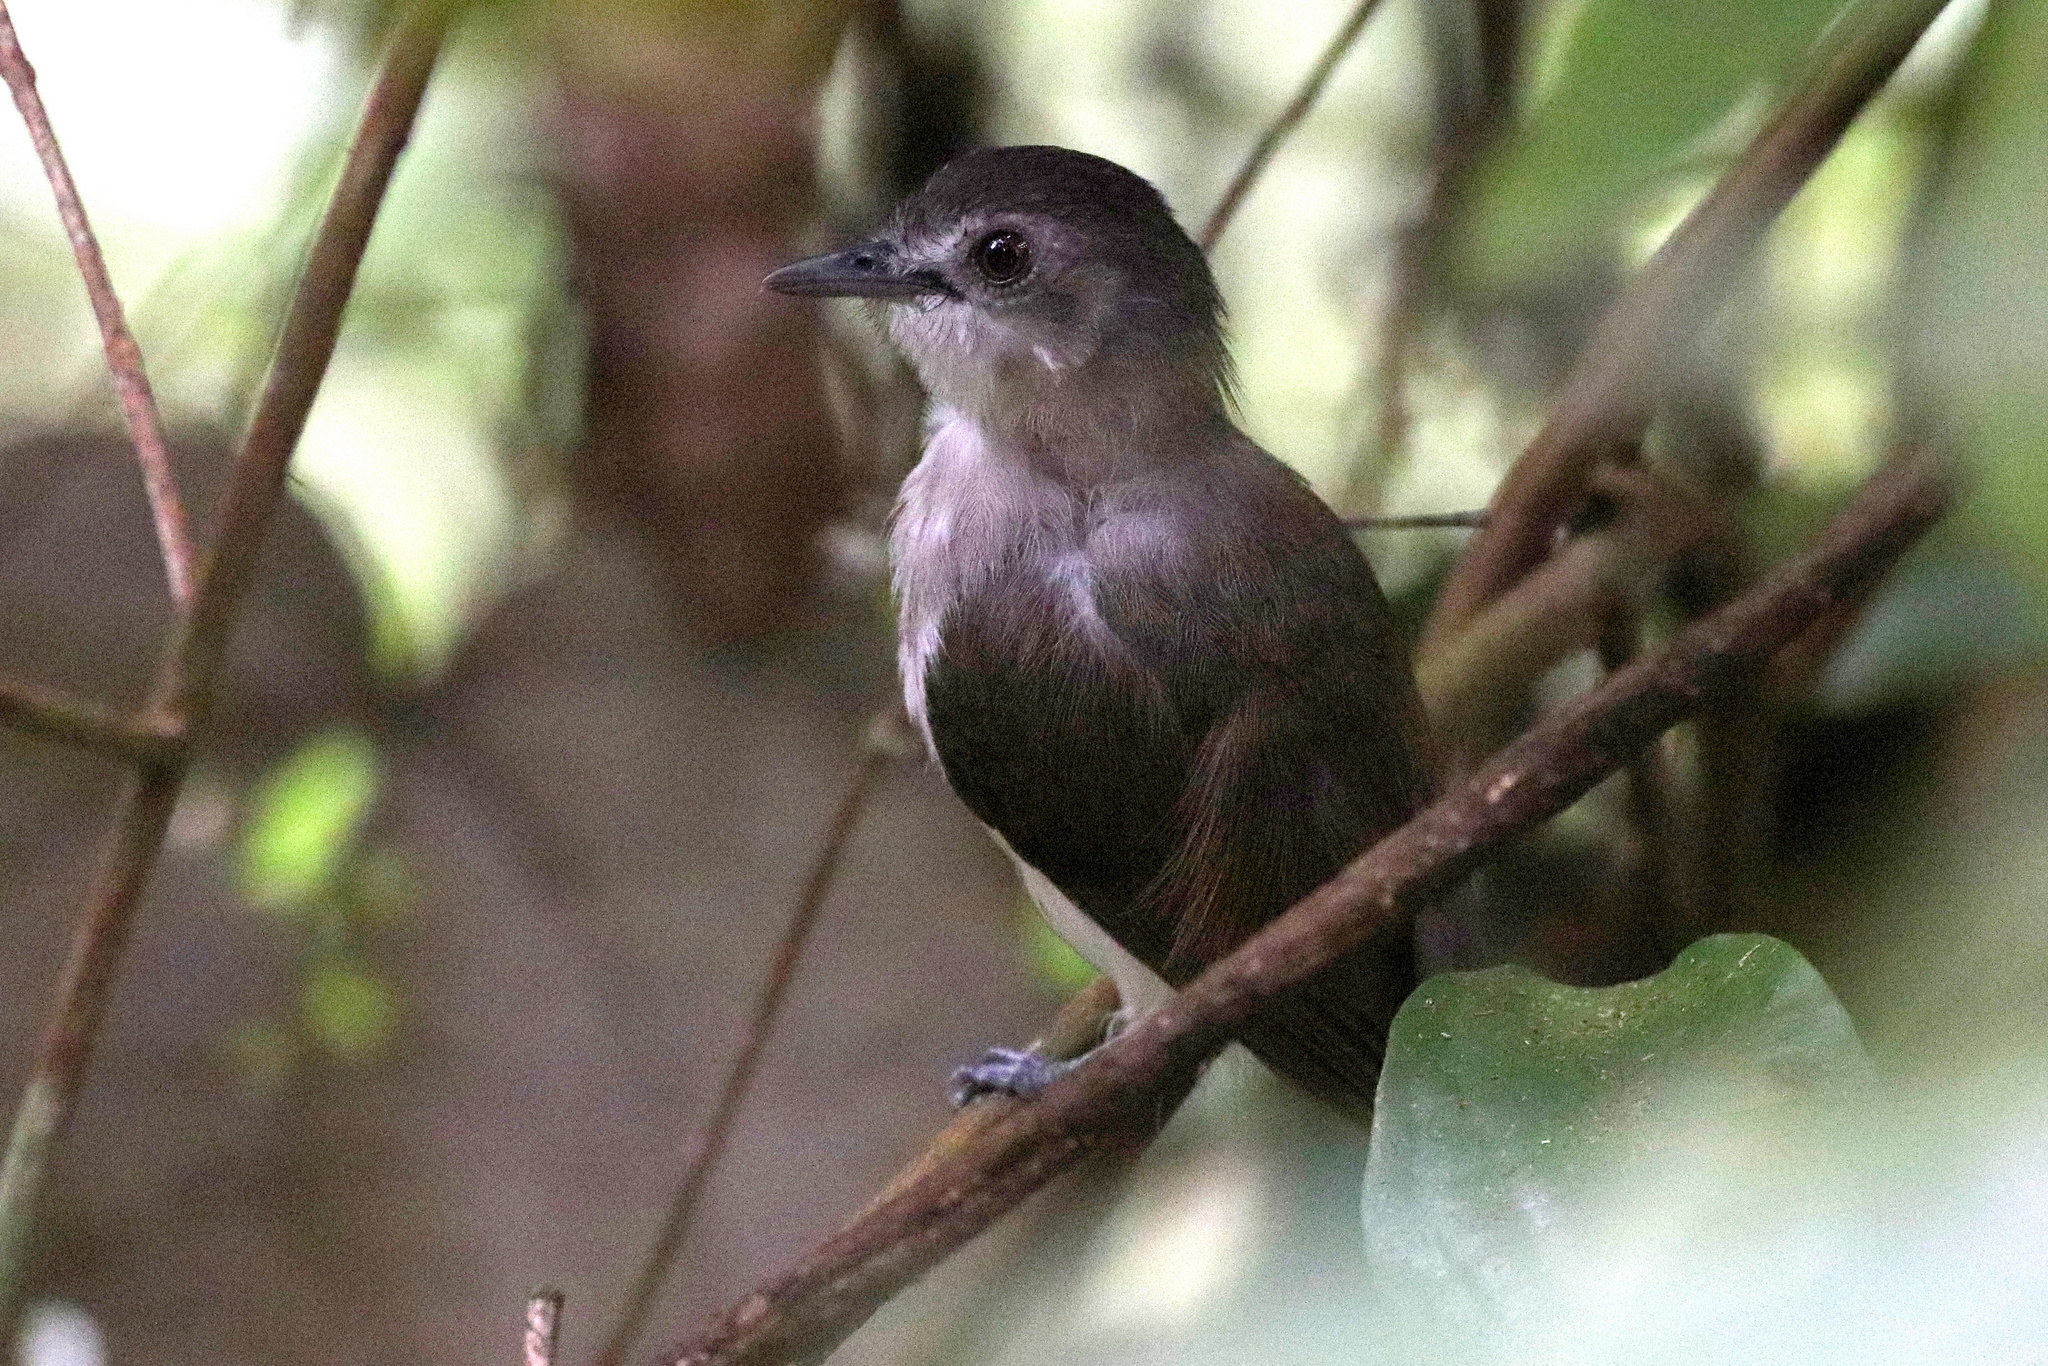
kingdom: Animalia
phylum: Chordata
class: Aves
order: Passeriformes
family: Pellorneidae
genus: Malacopteron
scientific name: Malacopteron affine
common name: Sooty-capped babbler
